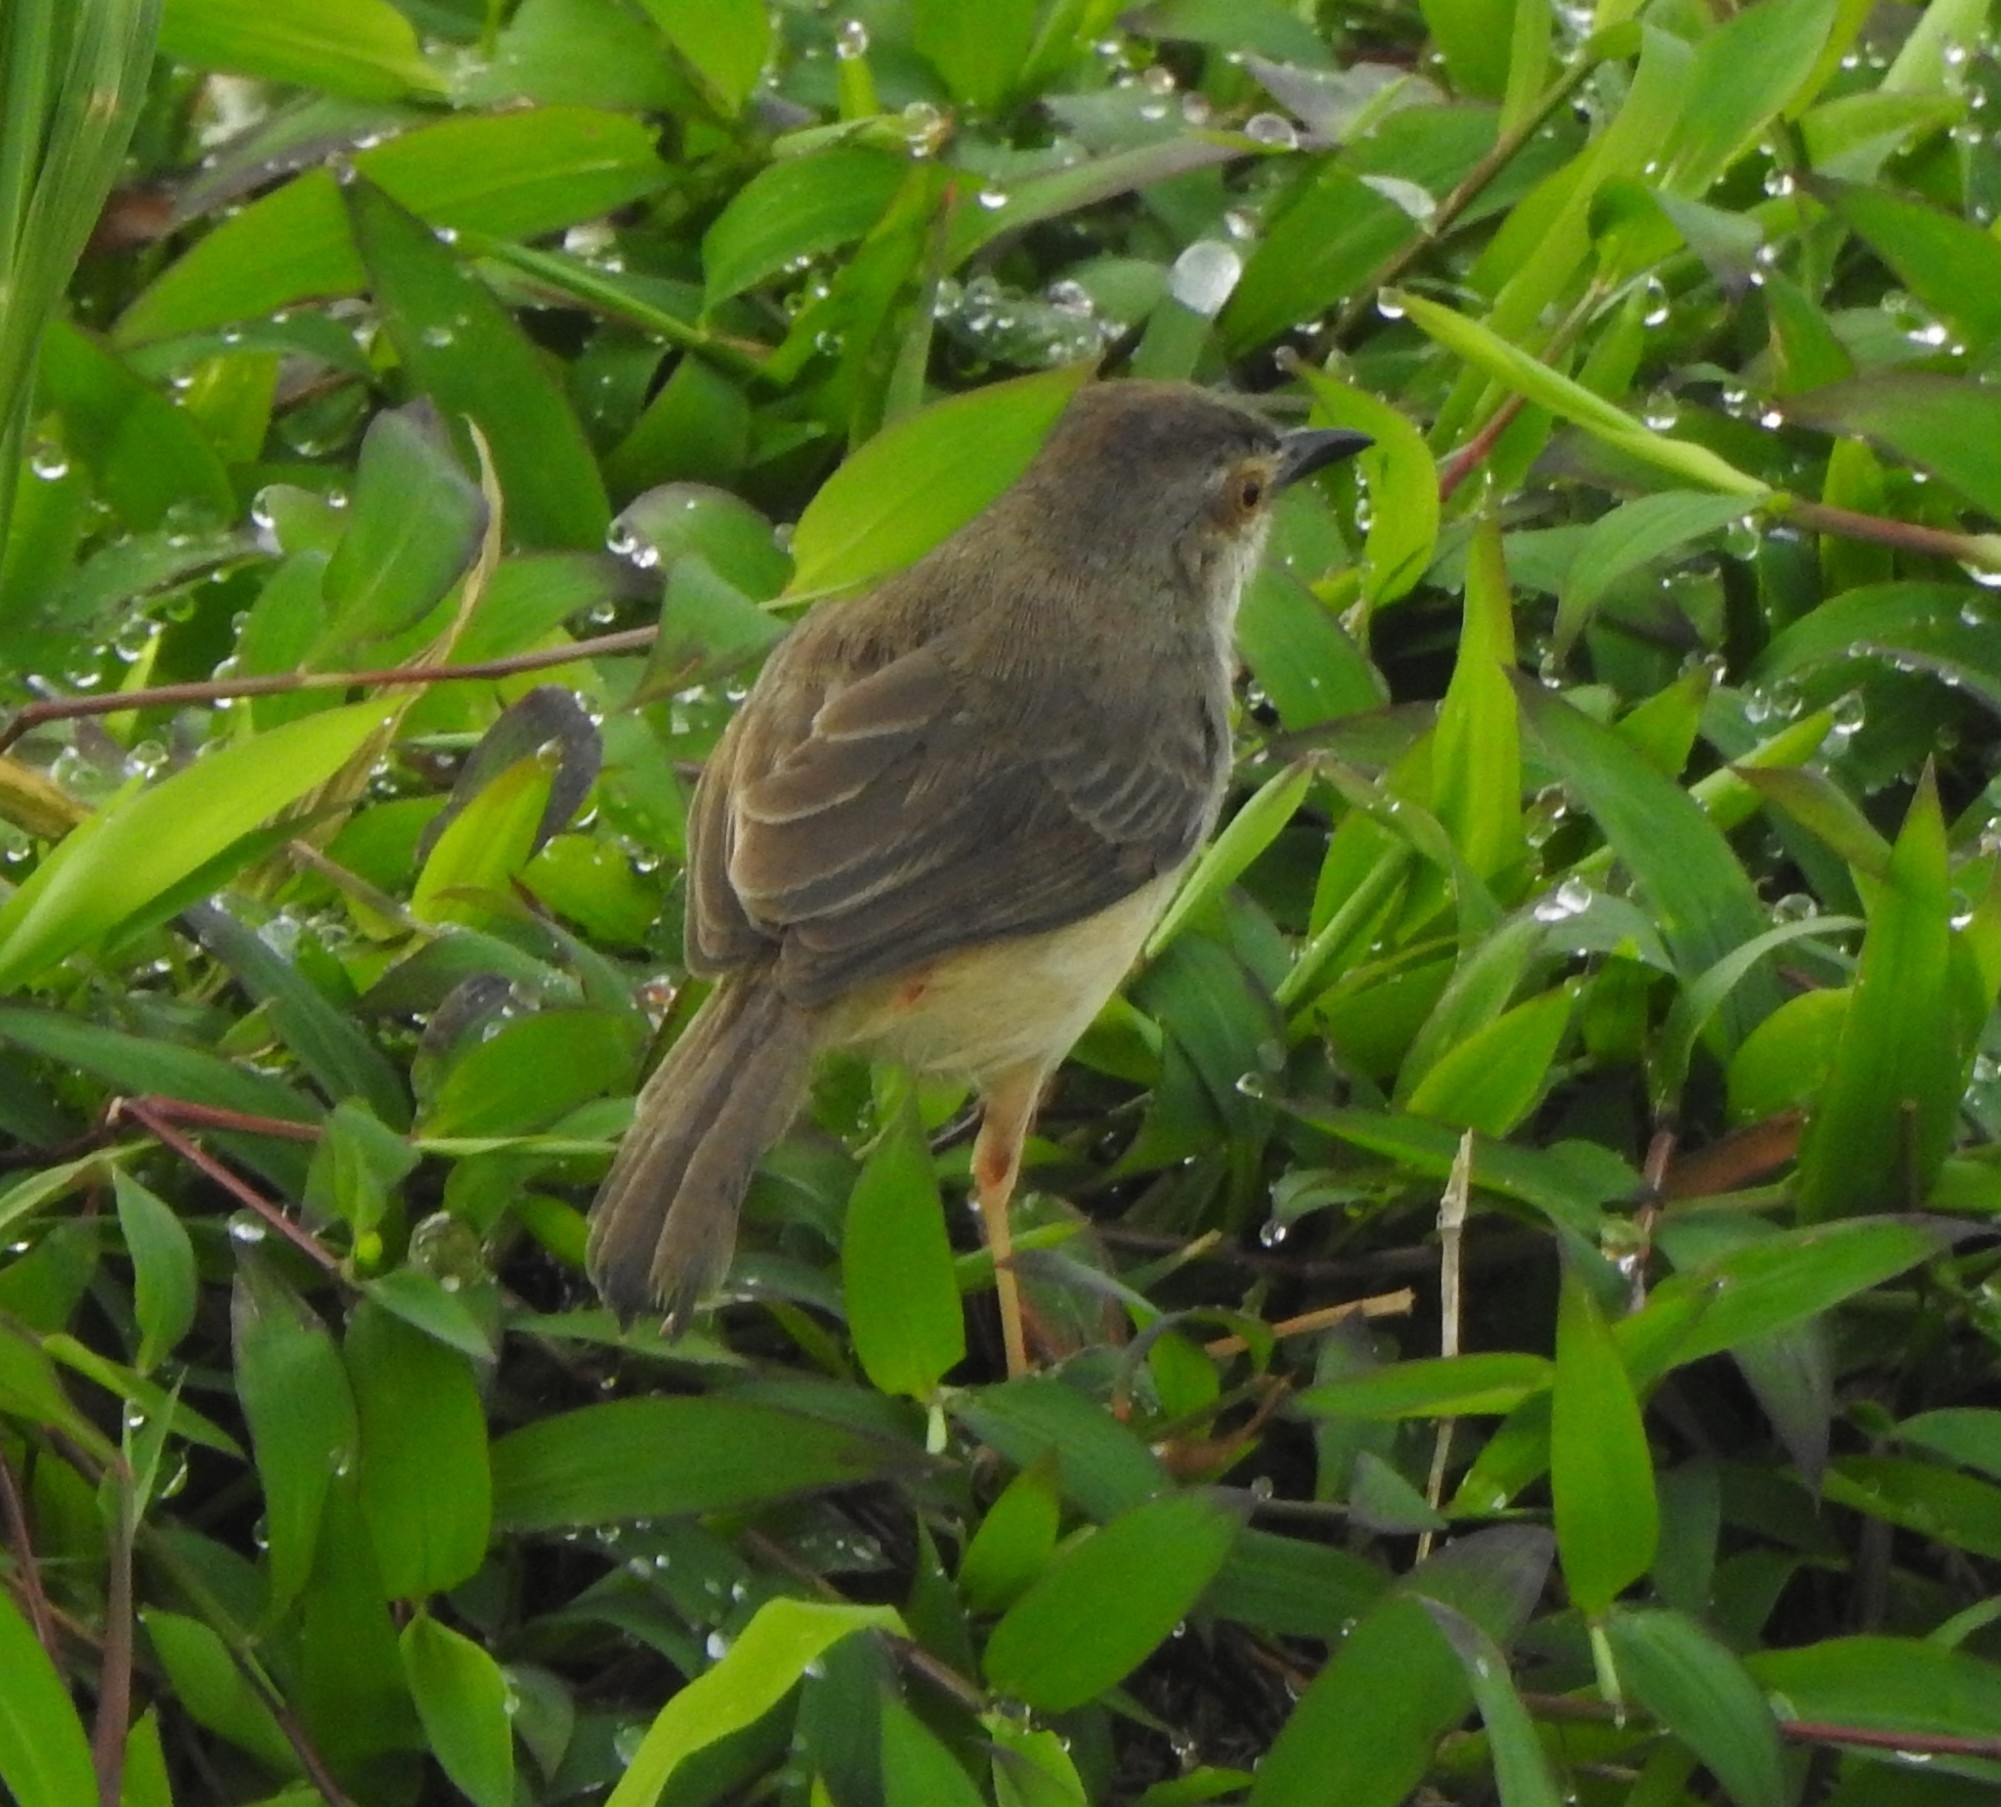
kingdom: Animalia
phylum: Chordata
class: Aves
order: Passeriformes
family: Cisticolidae
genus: Prinia
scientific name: Prinia inornata
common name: Plain prinia
